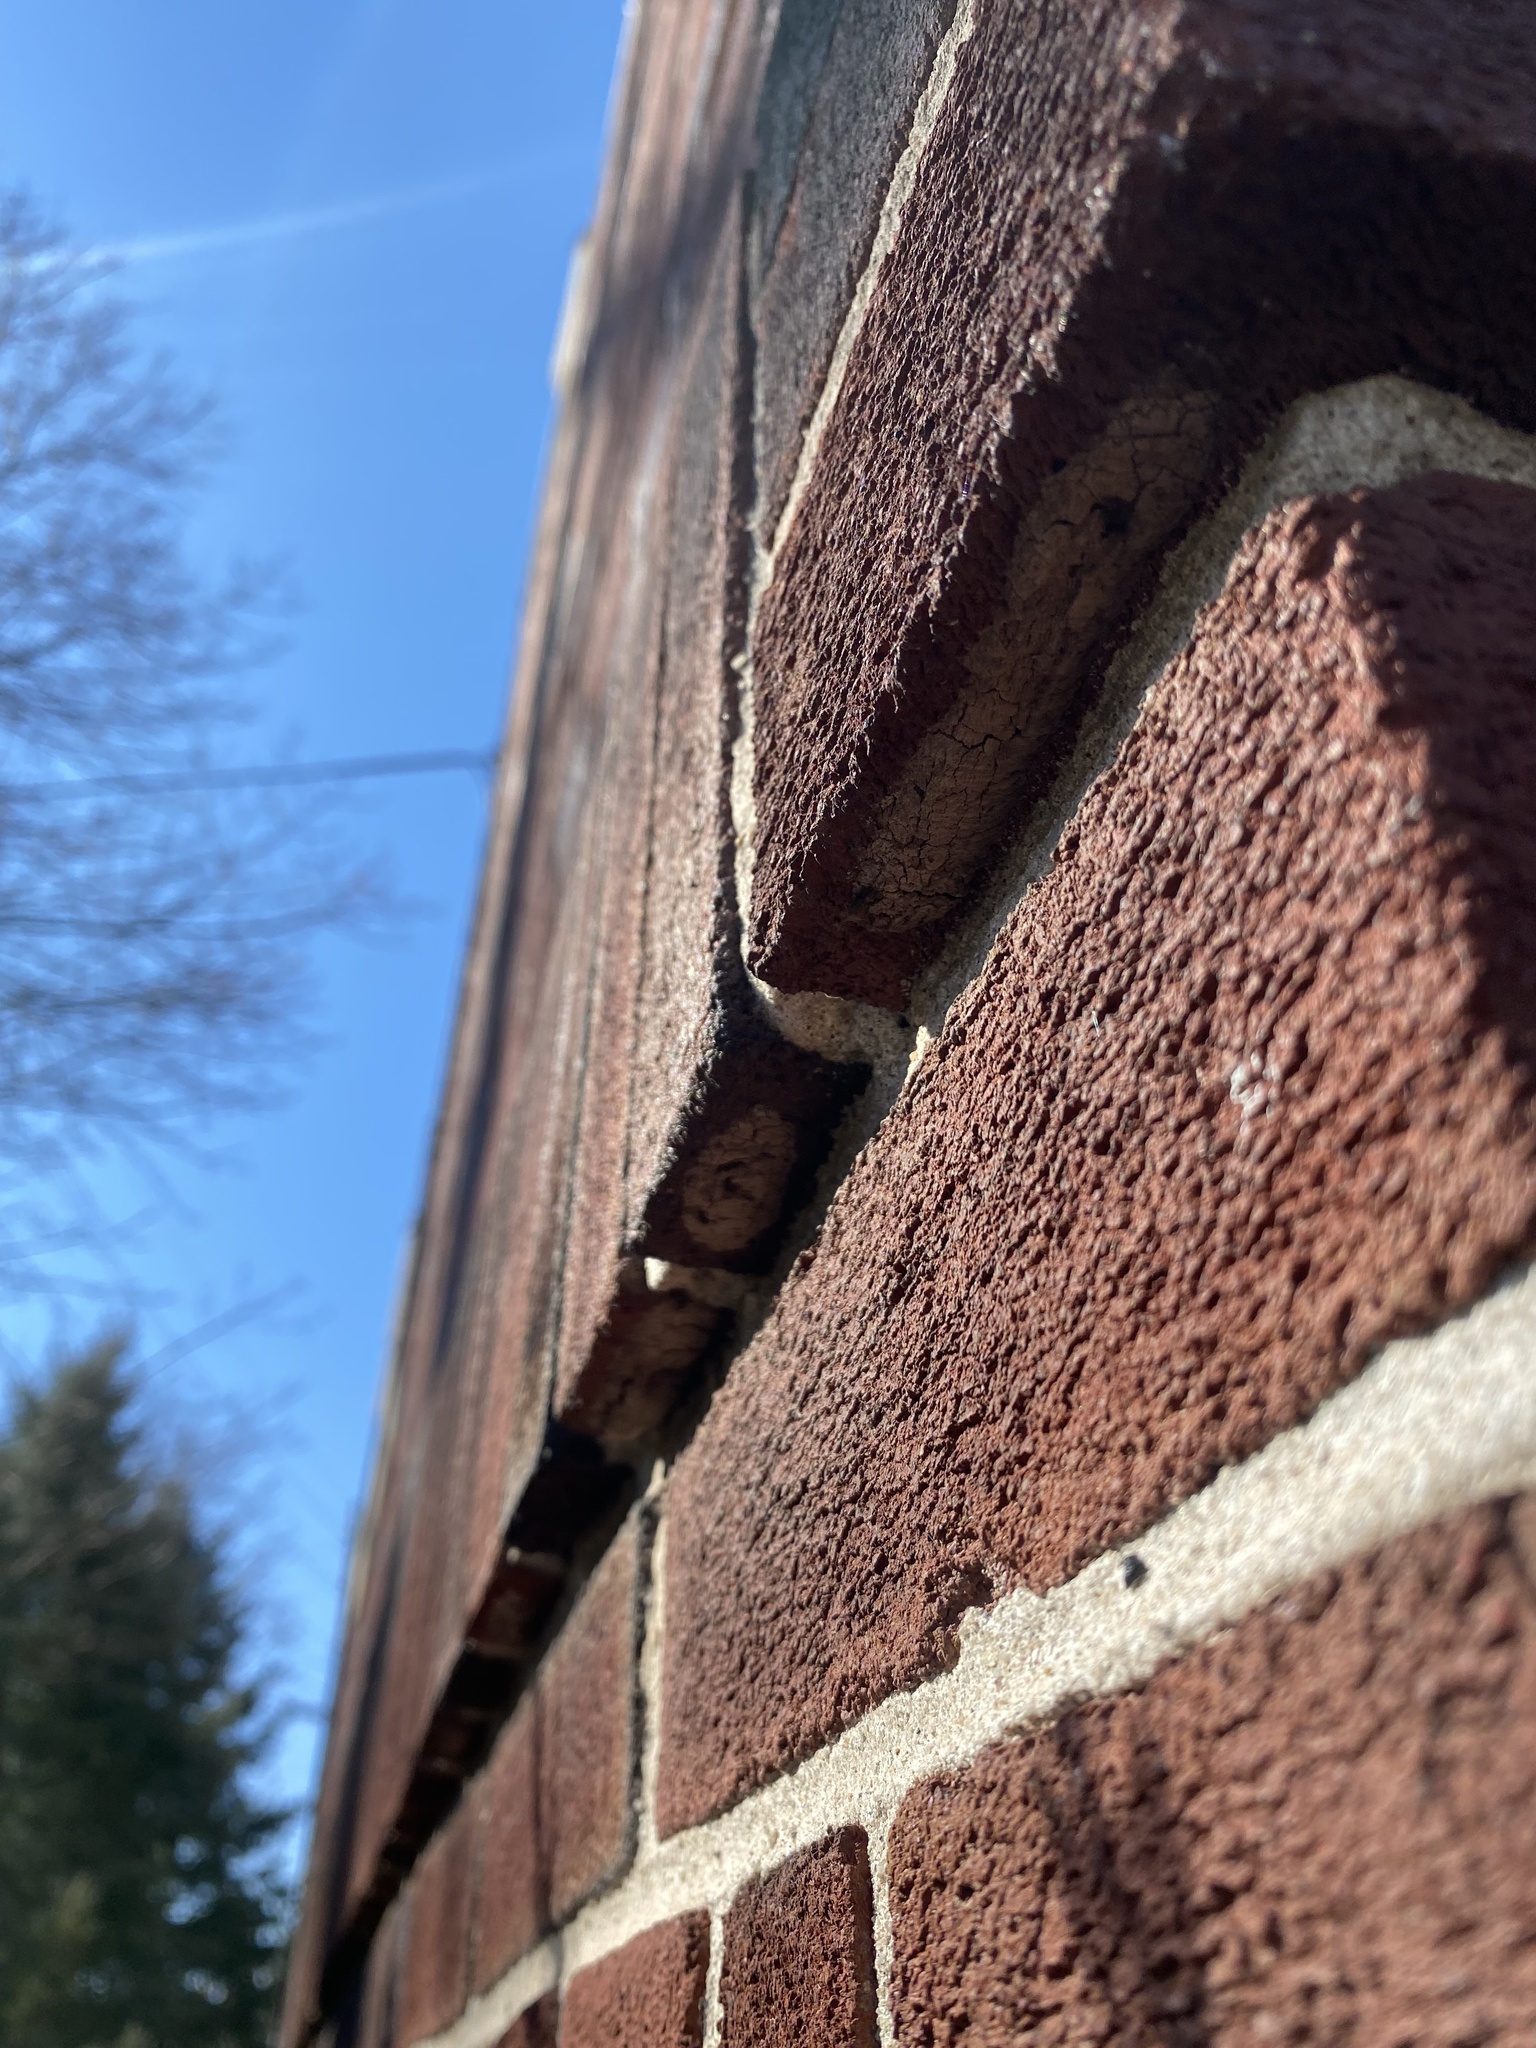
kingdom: Animalia
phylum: Arthropoda
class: Insecta
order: Hemiptera
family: Fulgoridae
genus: Lycorma
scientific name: Lycorma delicatula
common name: Spotted lanternfly
